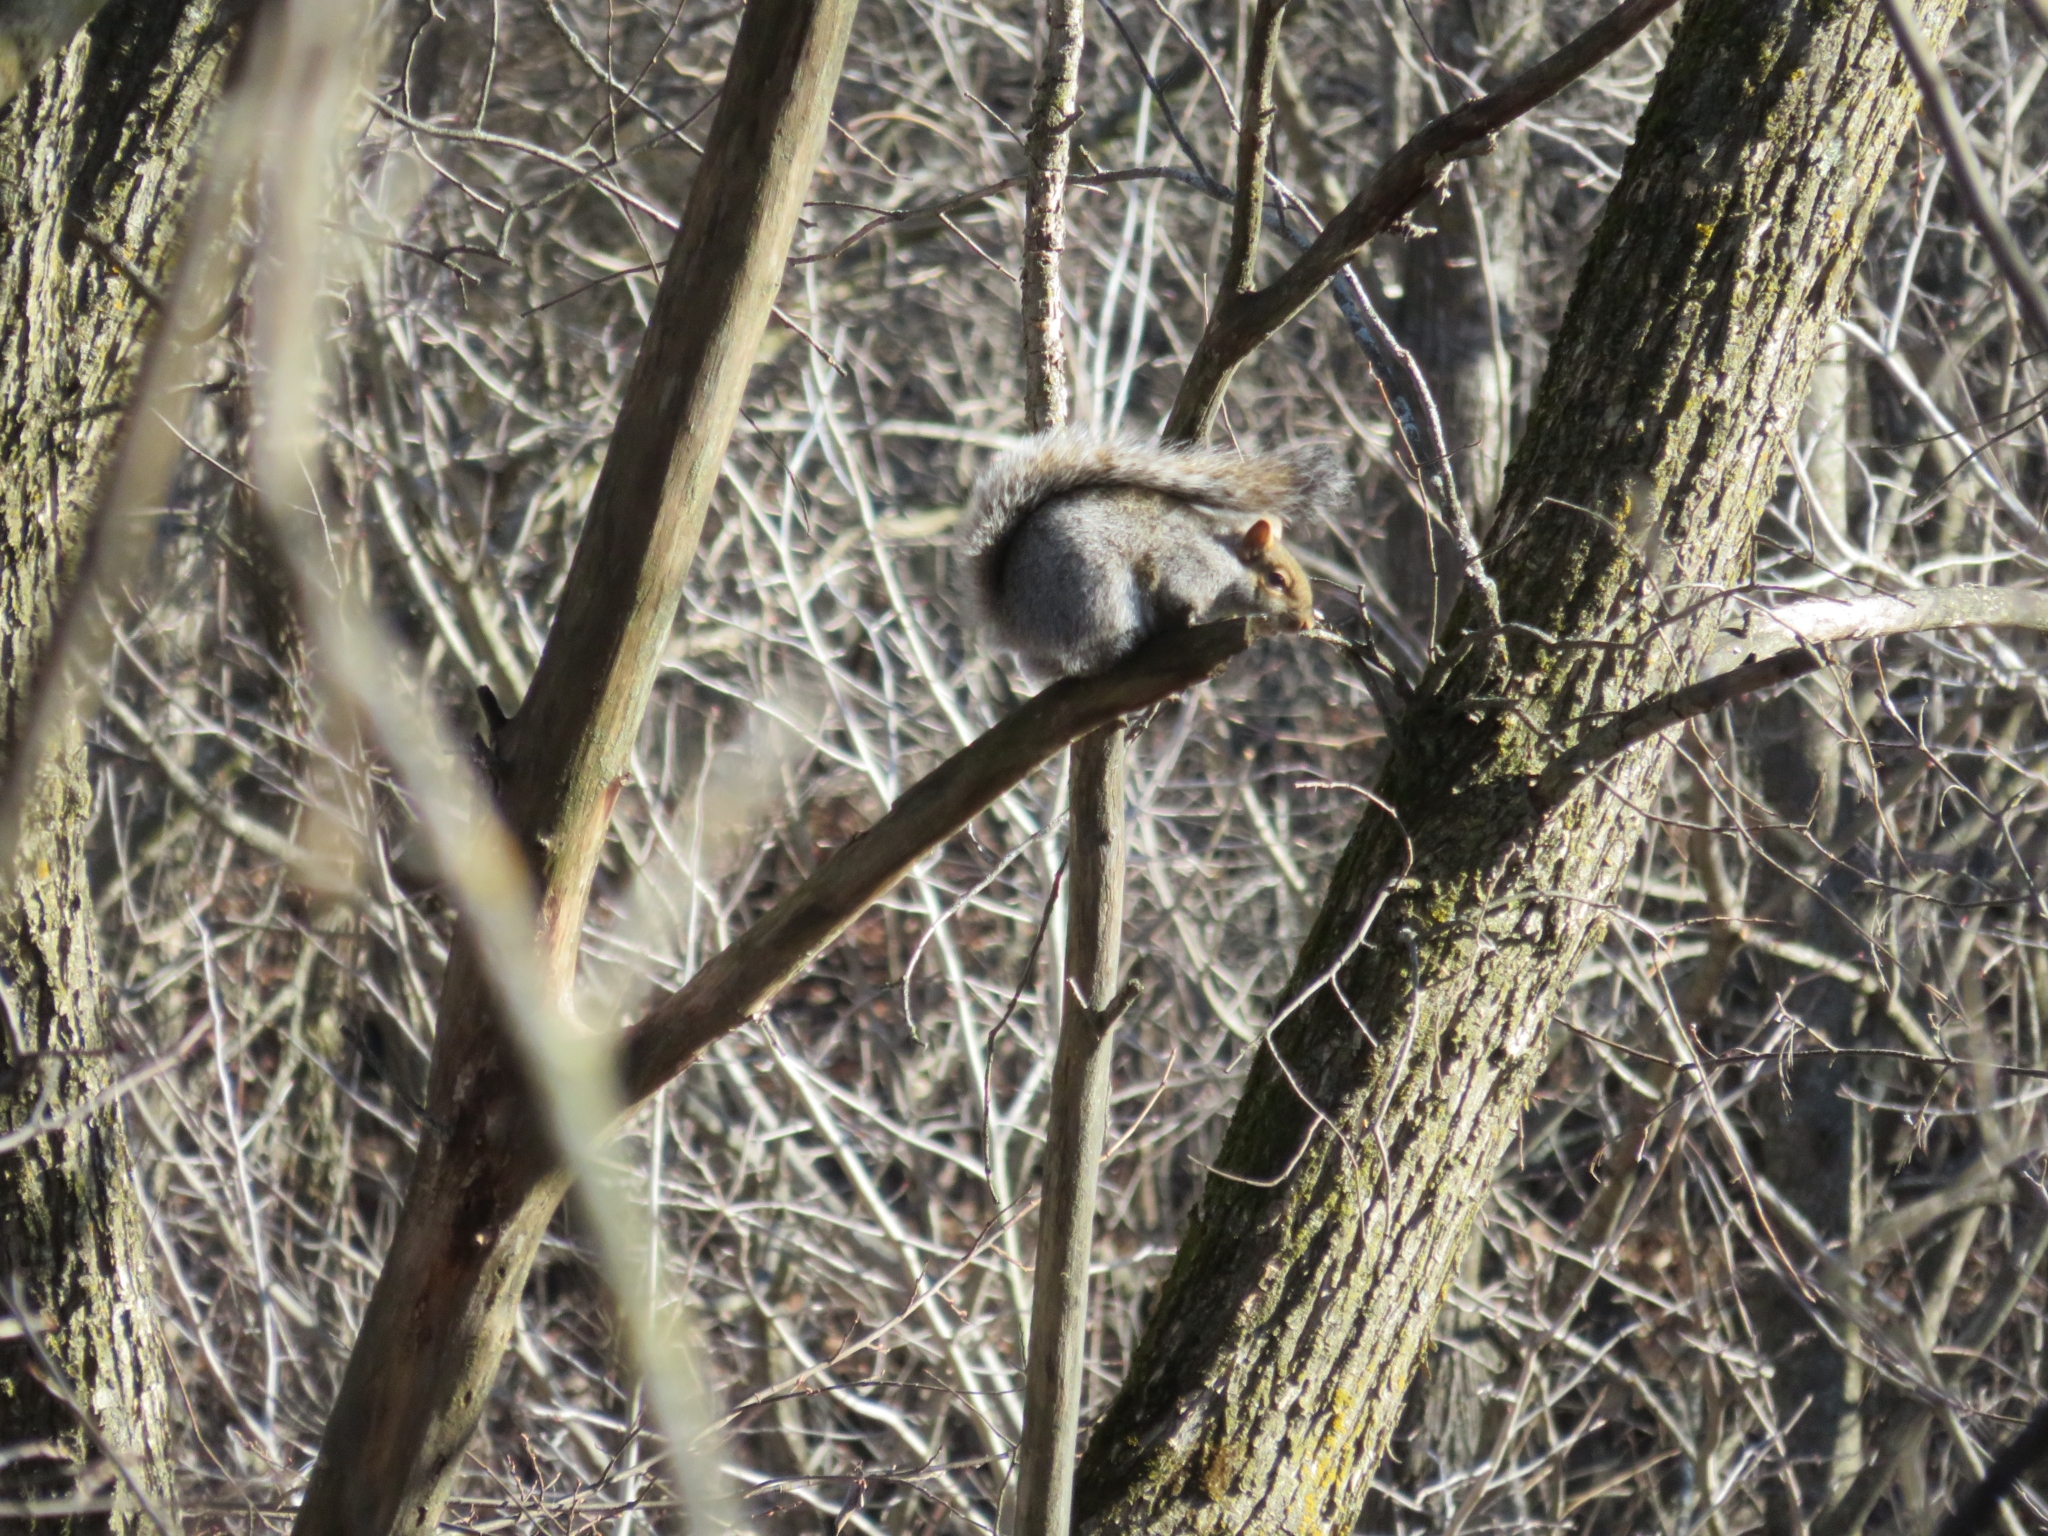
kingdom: Animalia
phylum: Chordata
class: Mammalia
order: Rodentia
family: Sciuridae
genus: Sciurus
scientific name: Sciurus carolinensis
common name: Eastern gray squirrel
